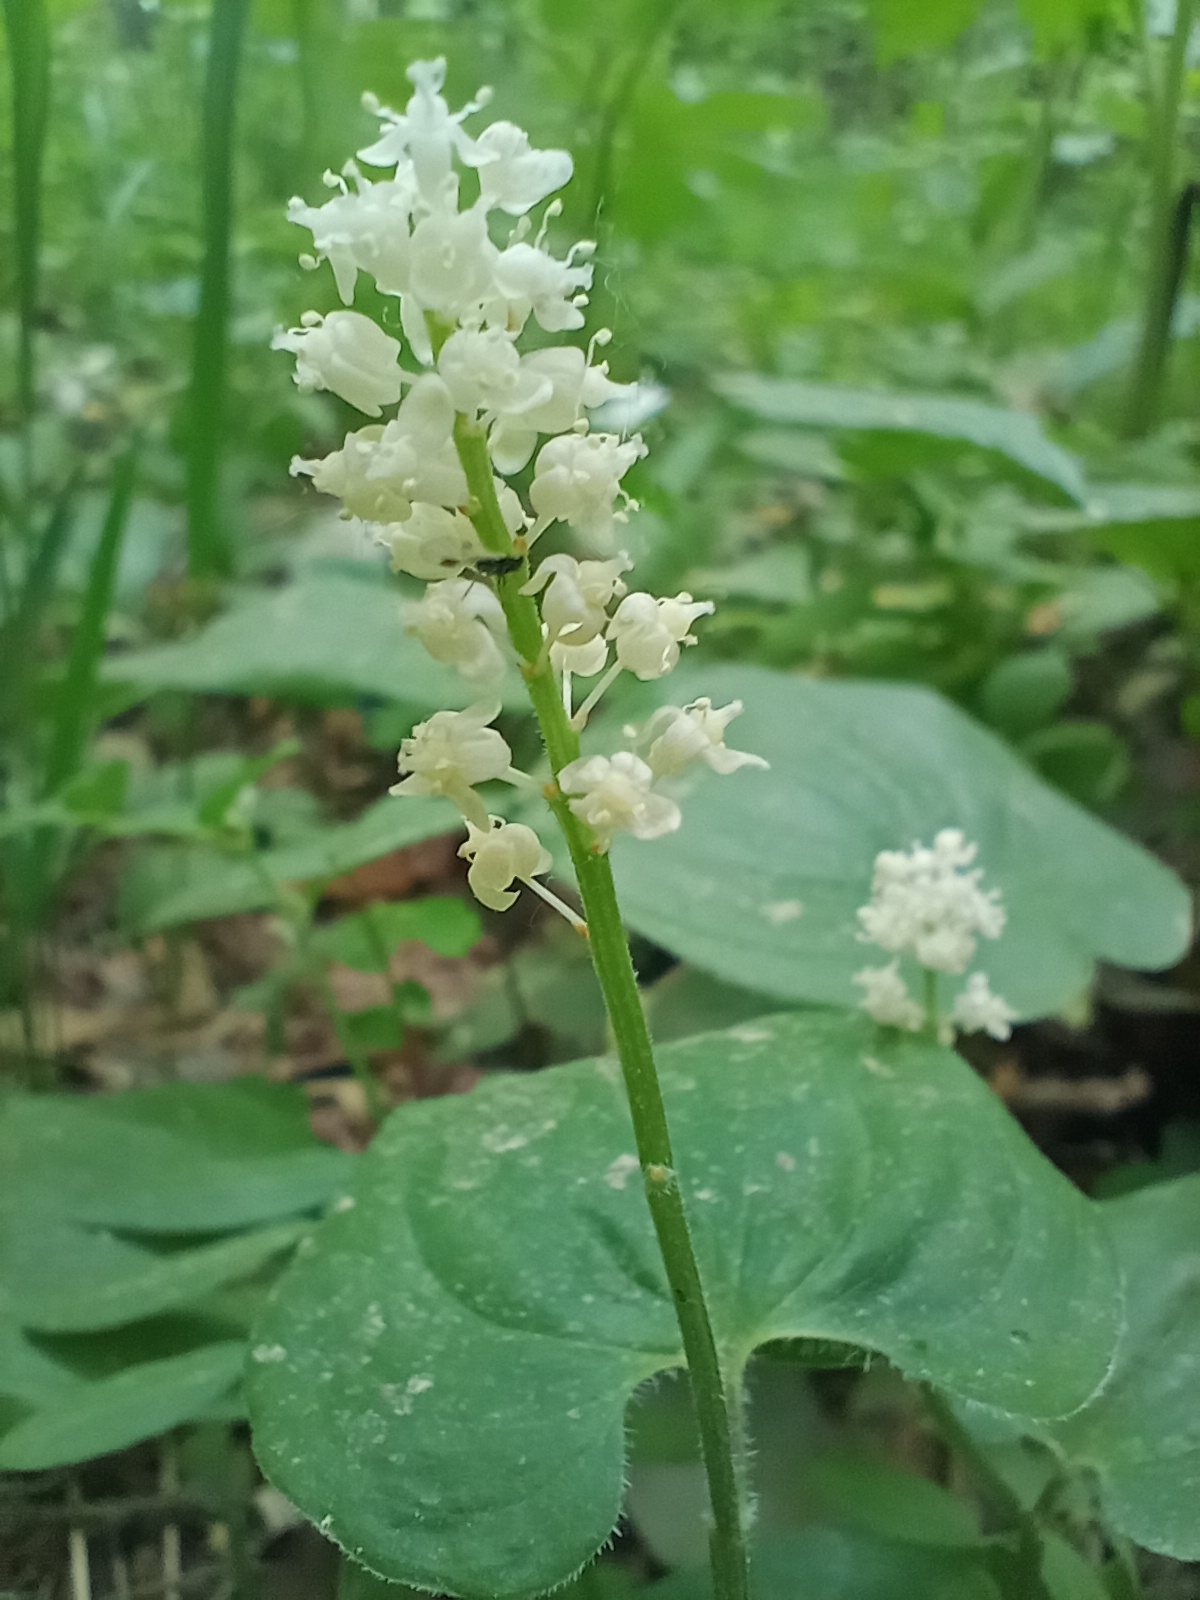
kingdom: Plantae
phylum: Tracheophyta
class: Liliopsida
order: Asparagales
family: Asparagaceae
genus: Maianthemum
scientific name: Maianthemum bifolium
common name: May lily
